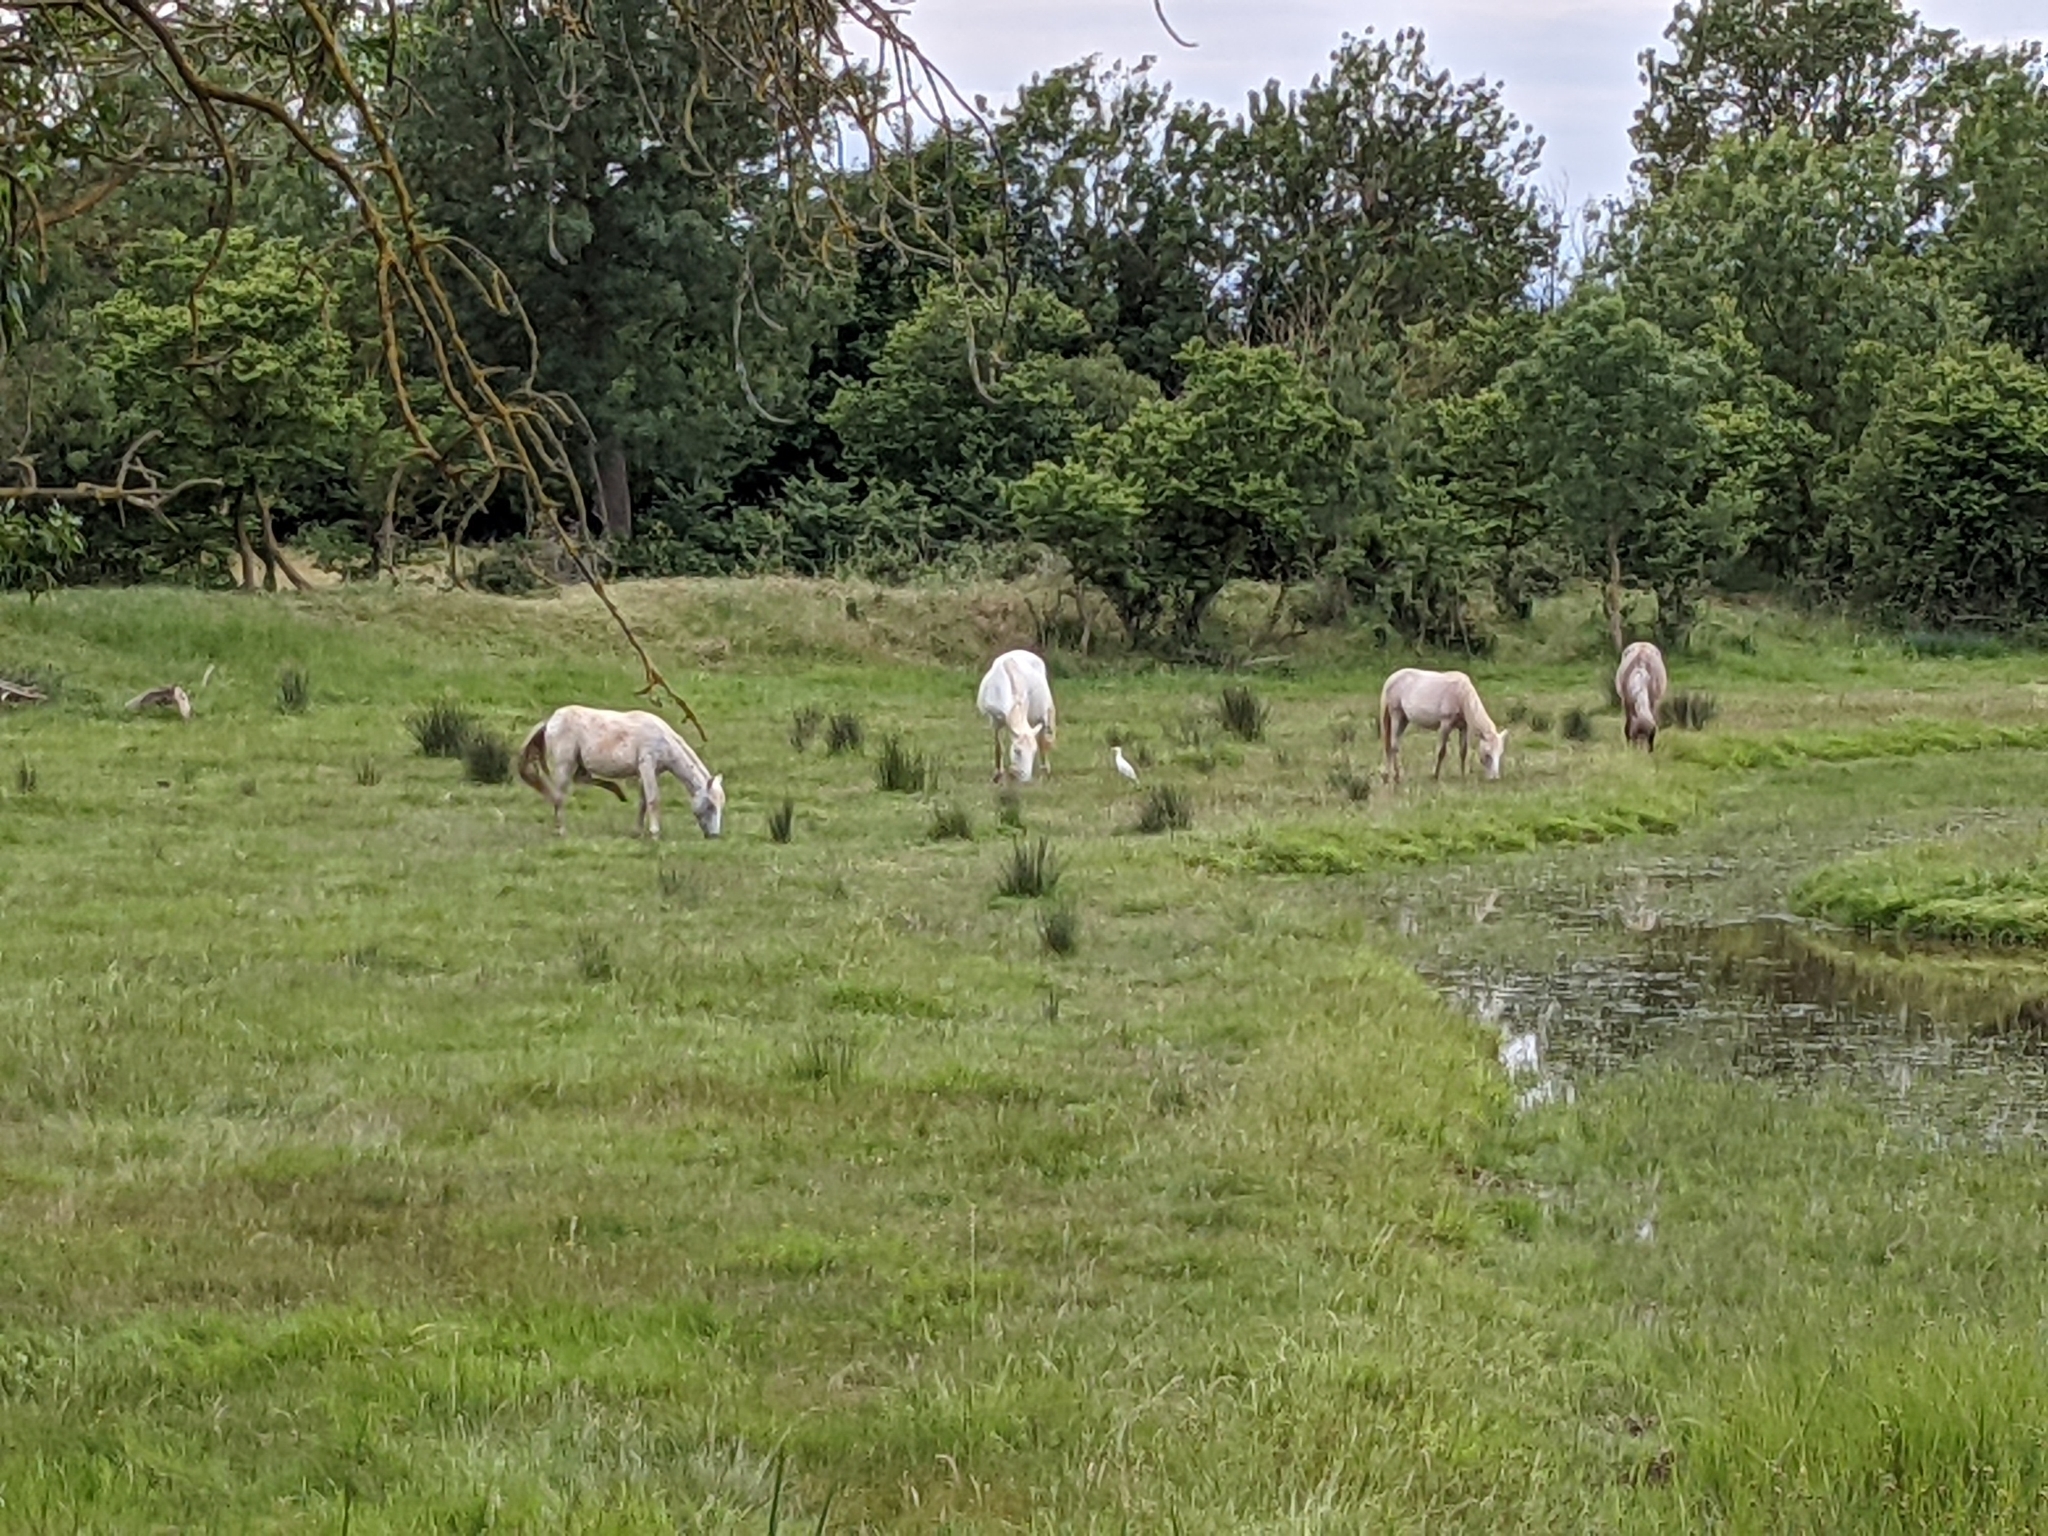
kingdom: Animalia
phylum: Chordata
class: Aves
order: Pelecaniformes
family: Ardeidae
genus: Bubulcus
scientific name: Bubulcus ibis
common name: Cattle egret
